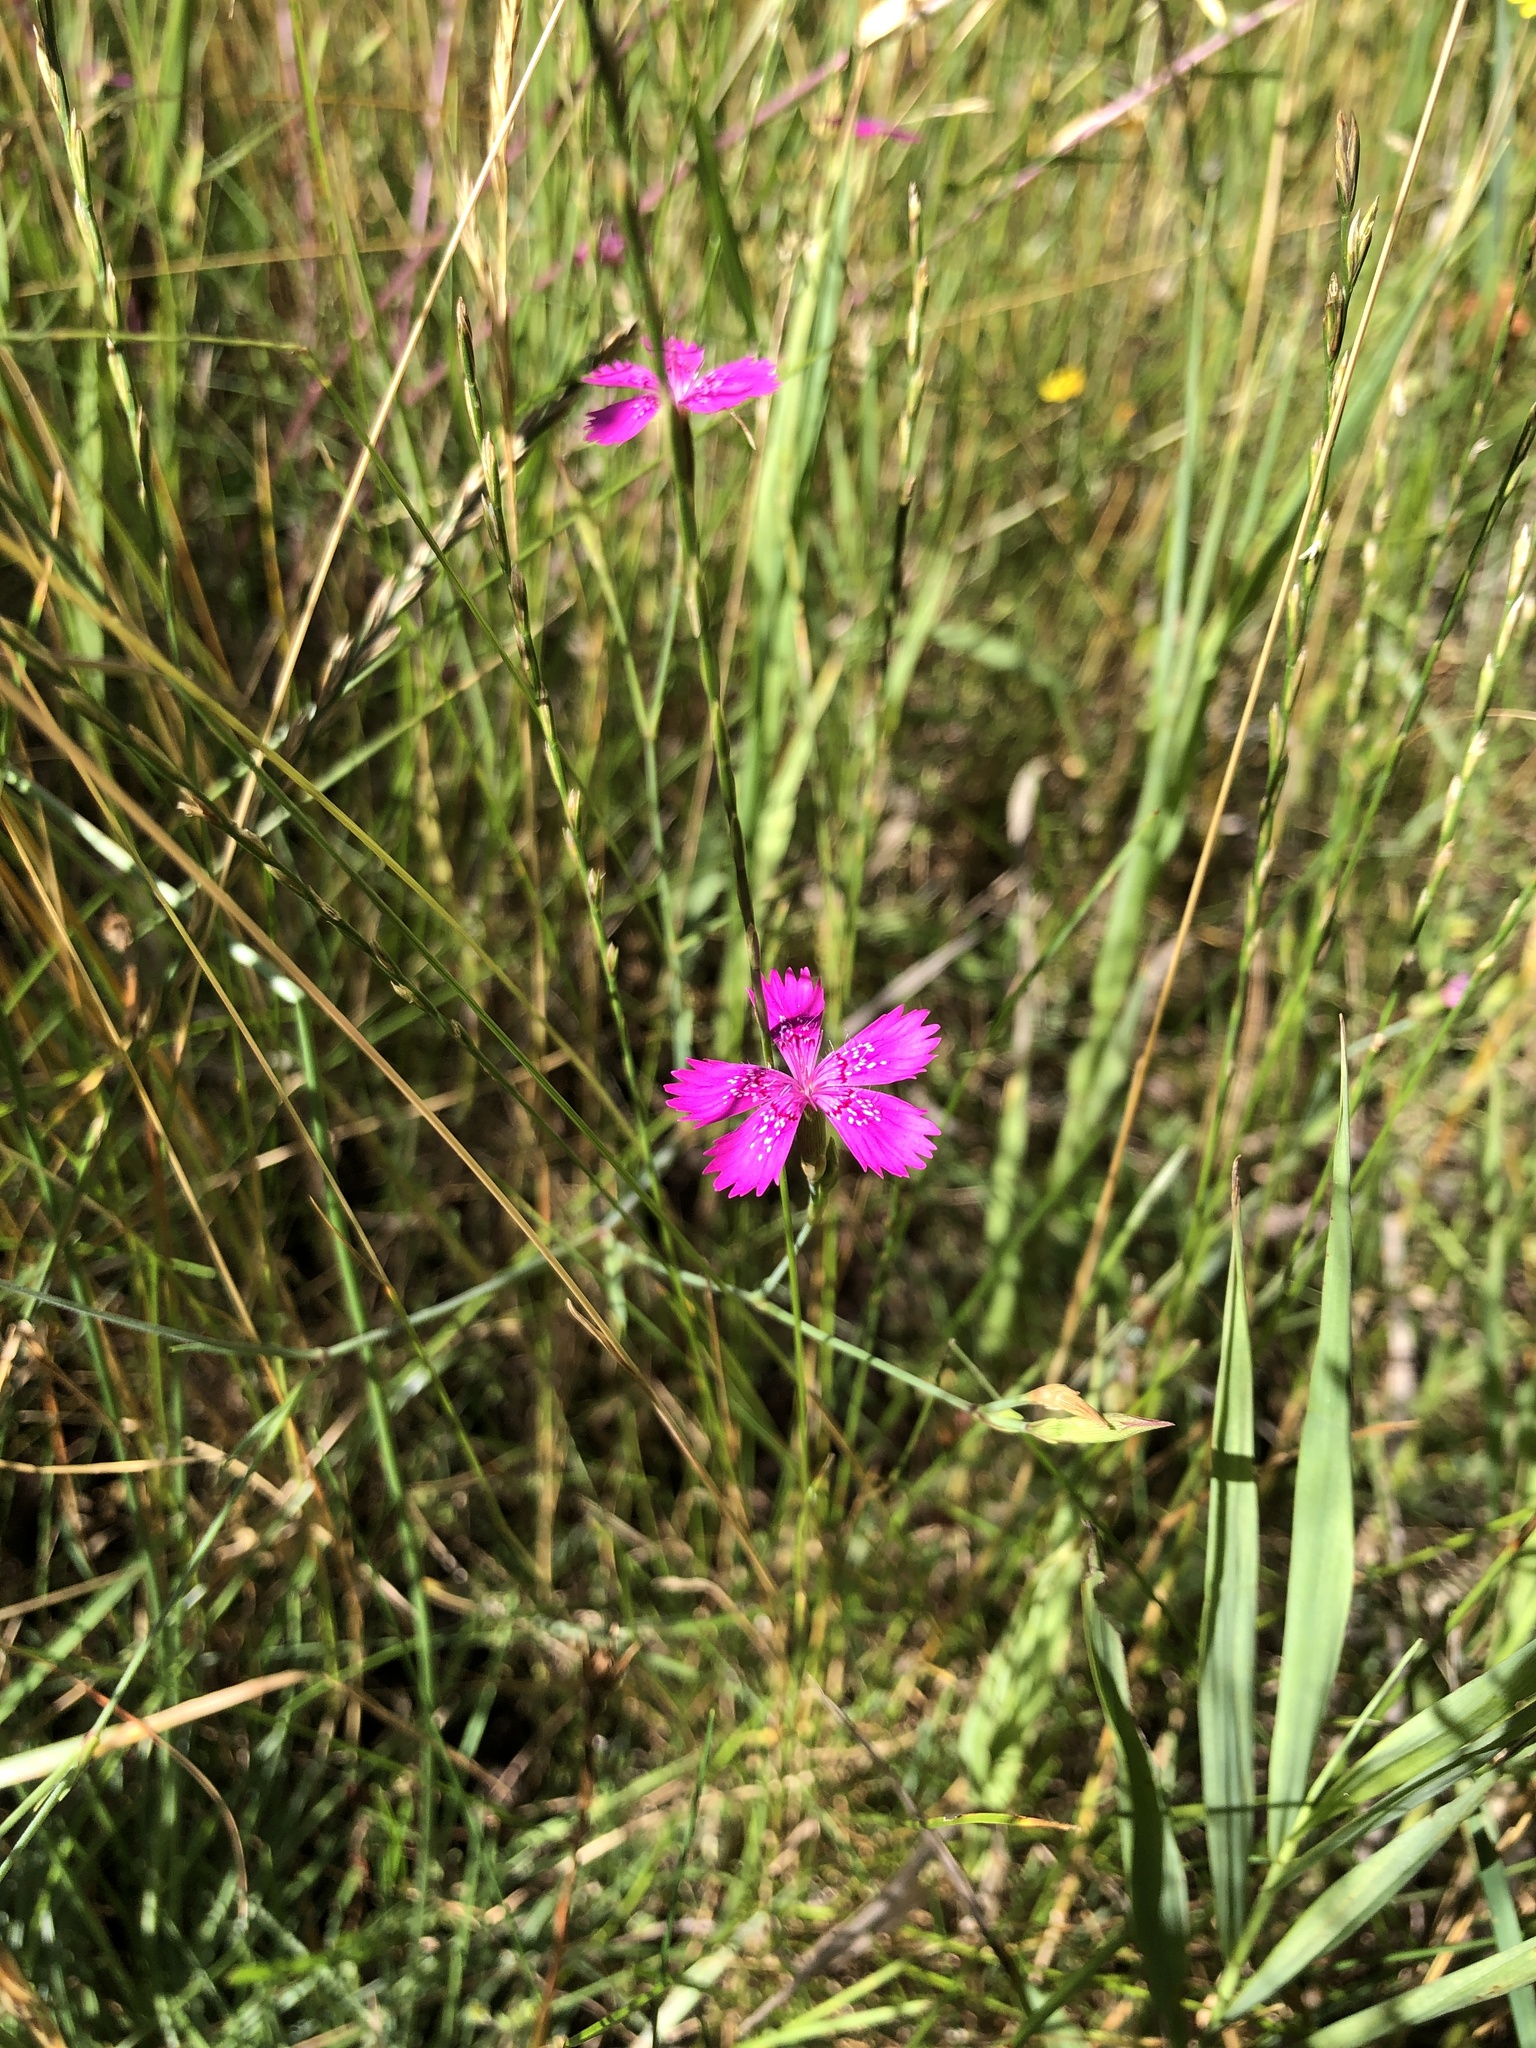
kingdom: Plantae
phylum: Tracheophyta
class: Magnoliopsida
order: Caryophyllales
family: Caryophyllaceae
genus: Dianthus
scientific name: Dianthus deltoides
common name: Maiden pink
